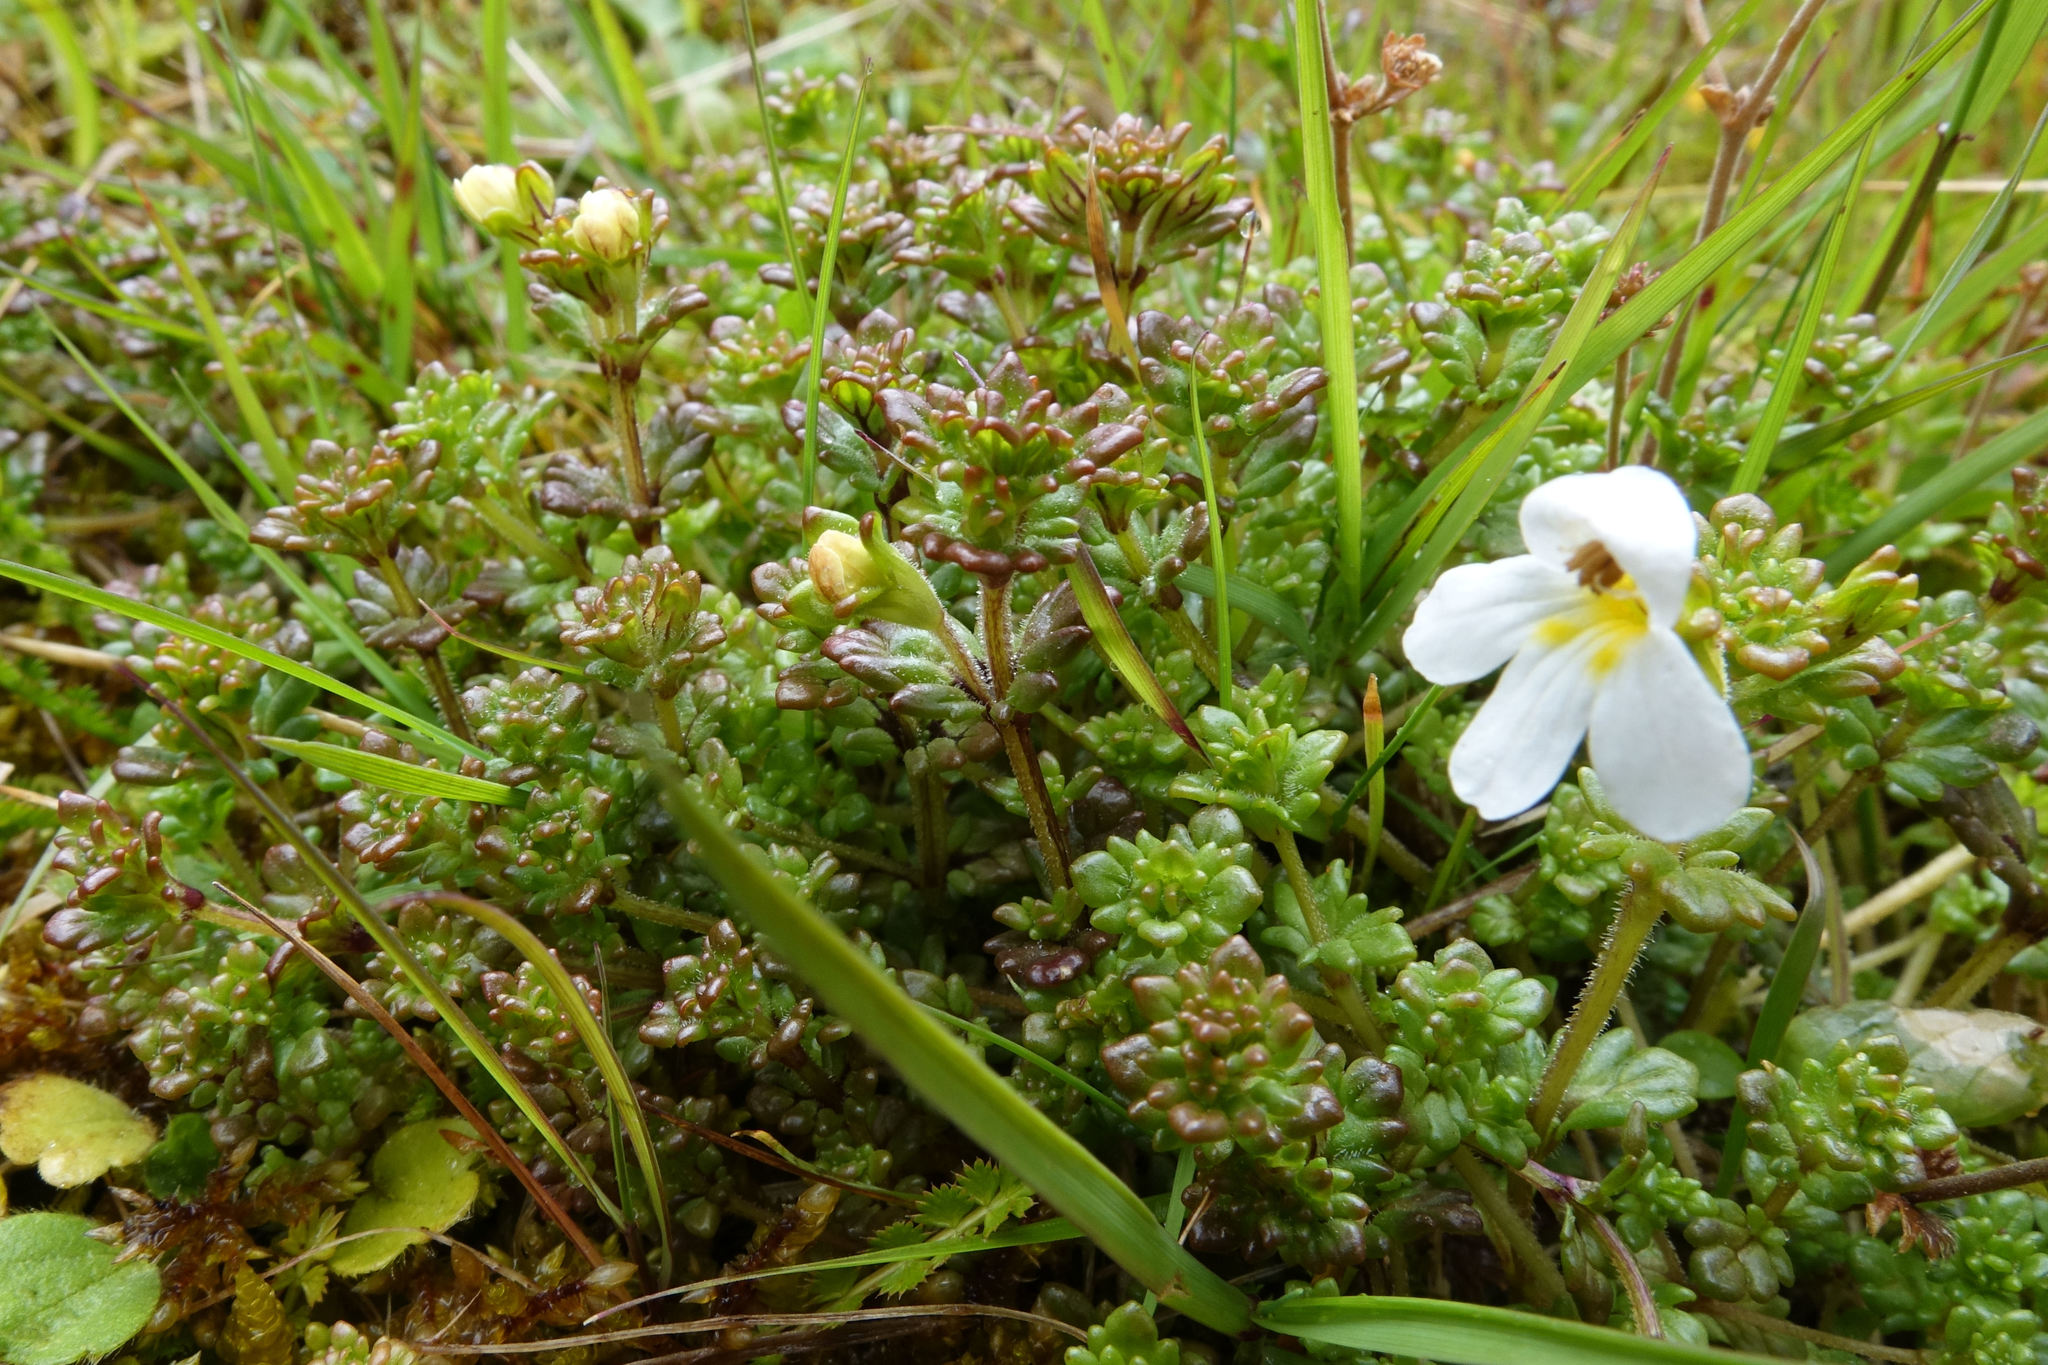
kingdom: Plantae
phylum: Tracheophyta
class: Magnoliopsida
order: Lamiales
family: Orobanchaceae
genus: Euphrasia
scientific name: Euphrasia zelandica
